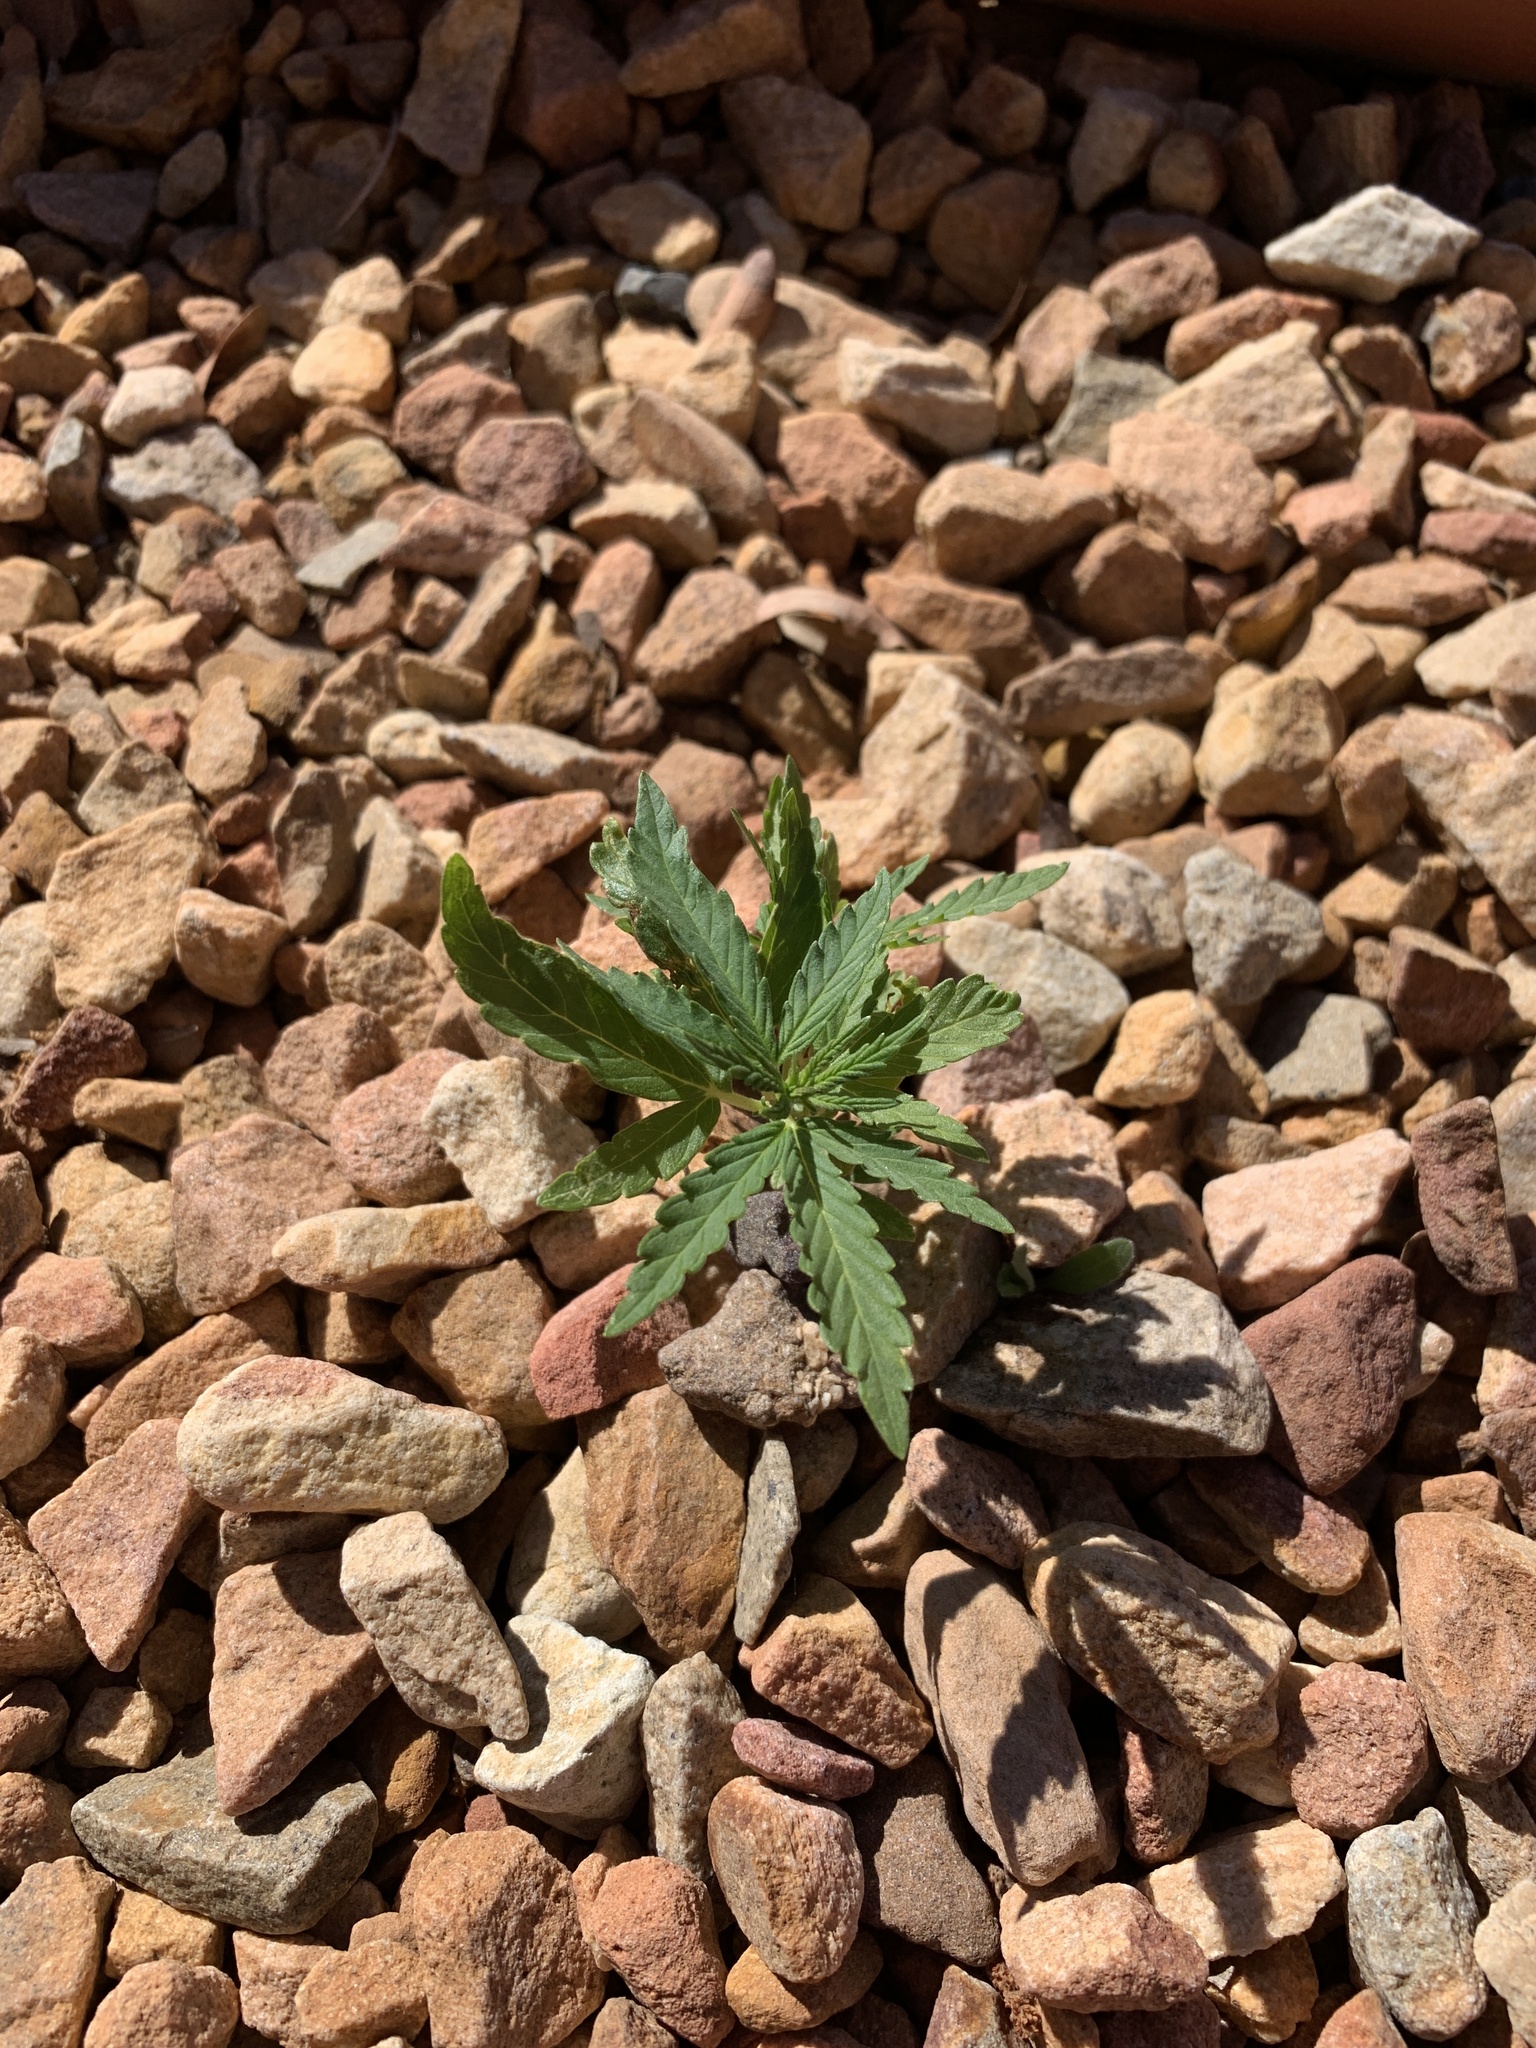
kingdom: Plantae
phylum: Tracheophyta
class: Magnoliopsida
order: Rosales
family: Cannabaceae
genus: Cannabis
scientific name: Cannabis sativa
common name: Hemp
